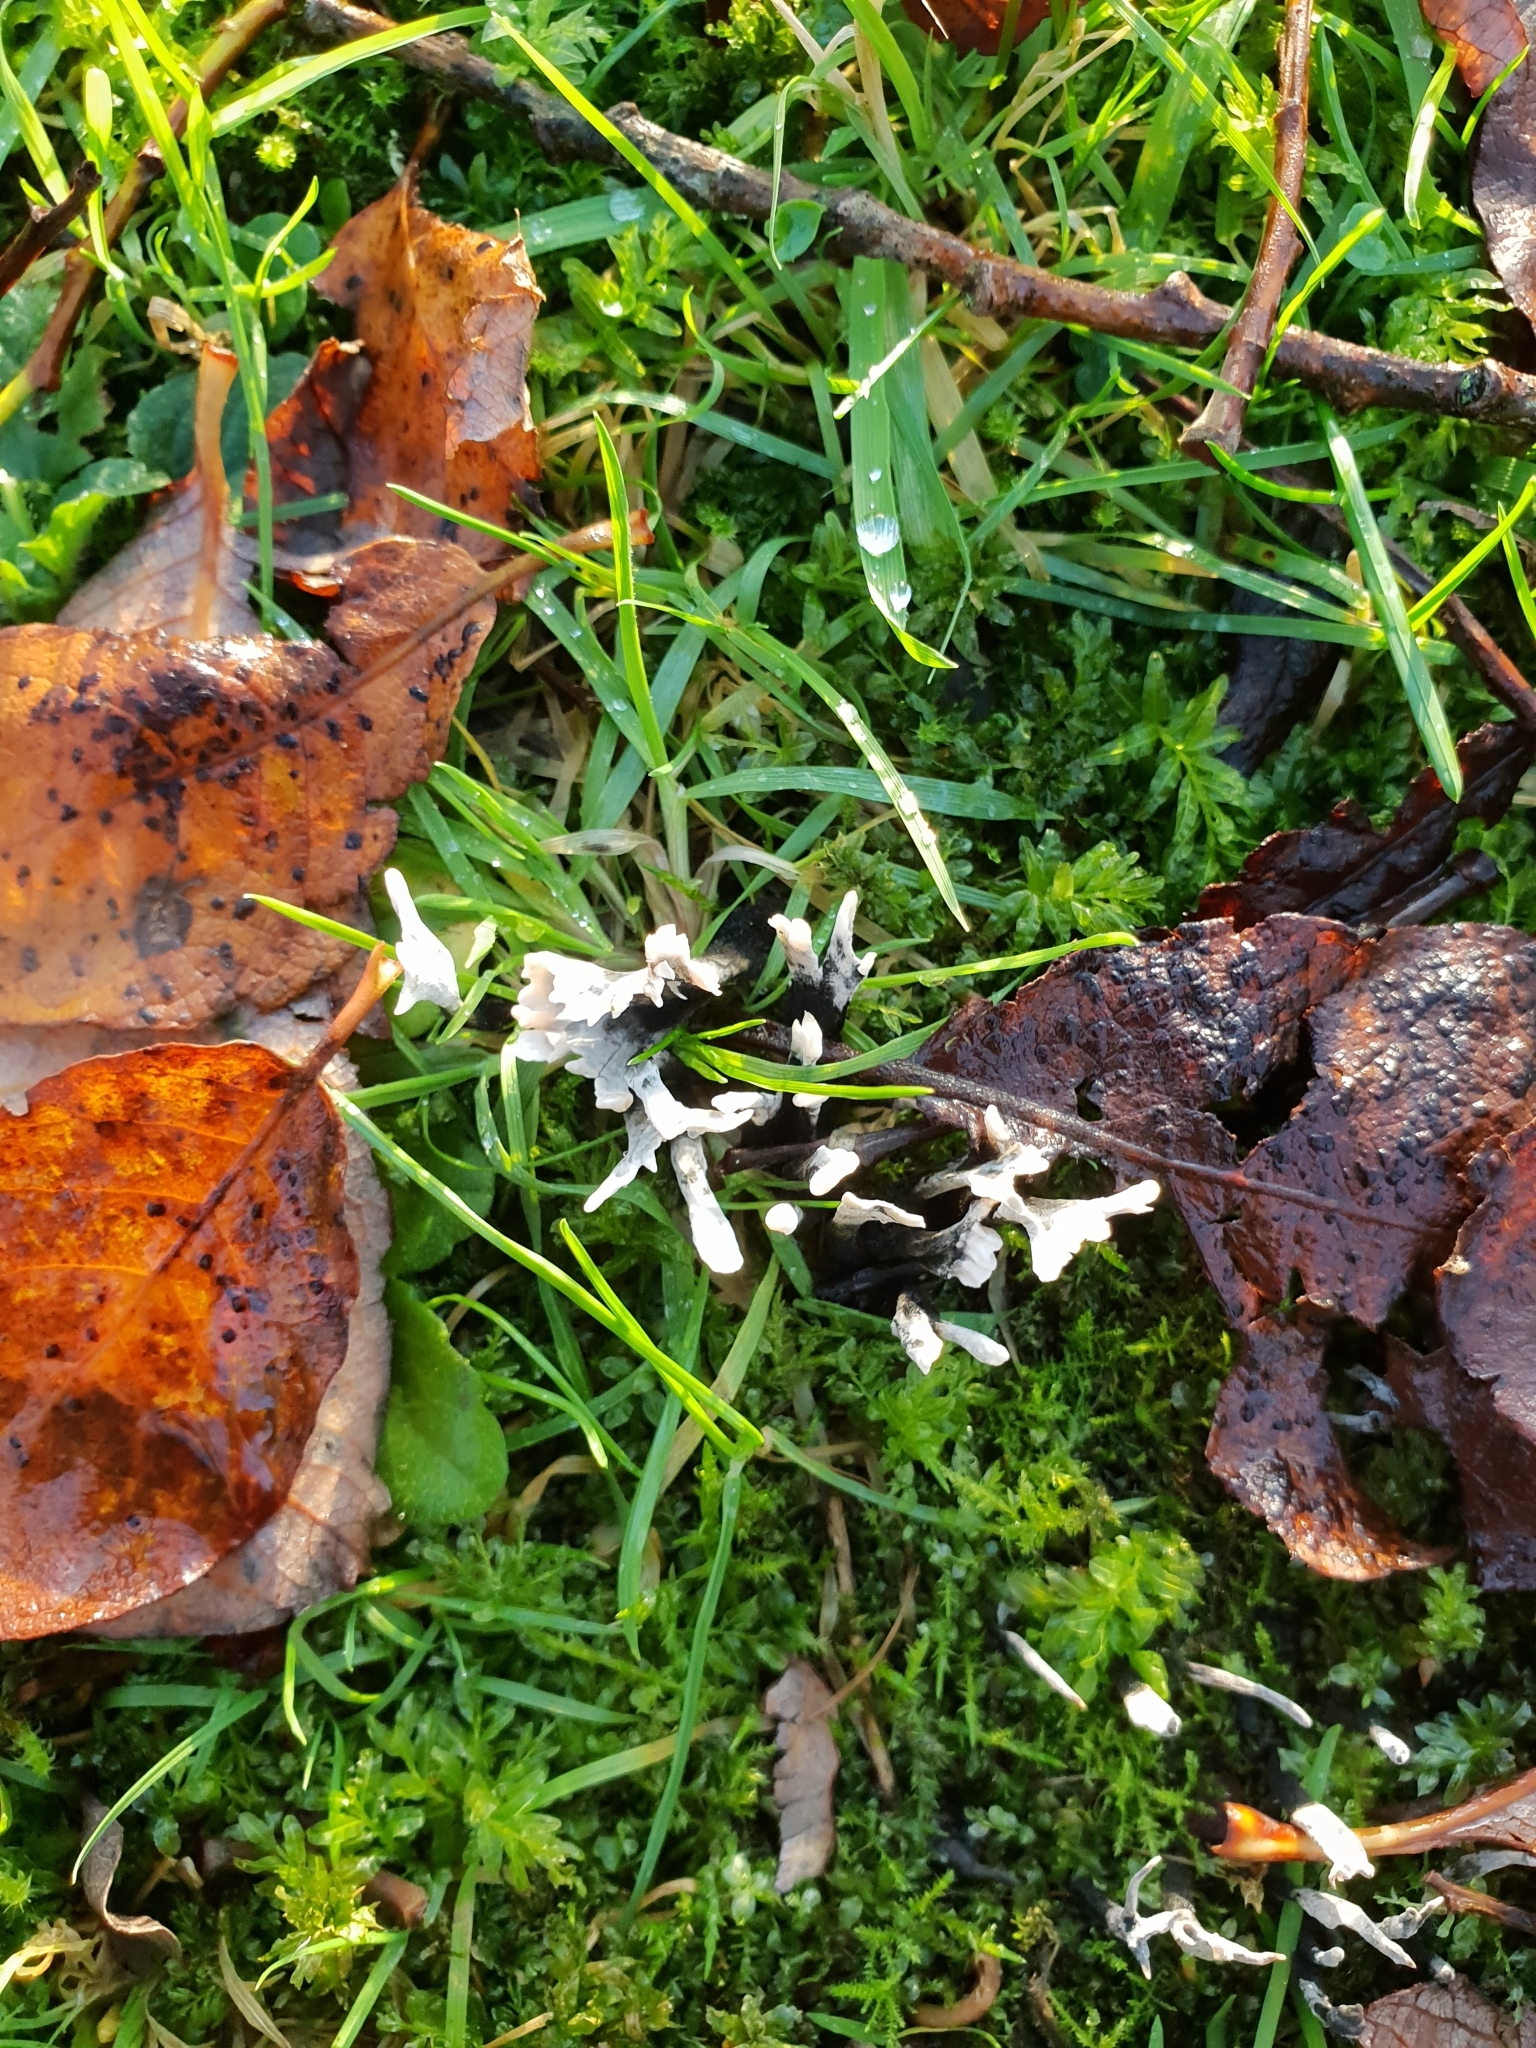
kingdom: Fungi
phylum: Ascomycota
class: Sordariomycetes
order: Xylariales
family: Xylariaceae
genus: Xylaria
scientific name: Xylaria hypoxylon
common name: Candle-snuff fungus
